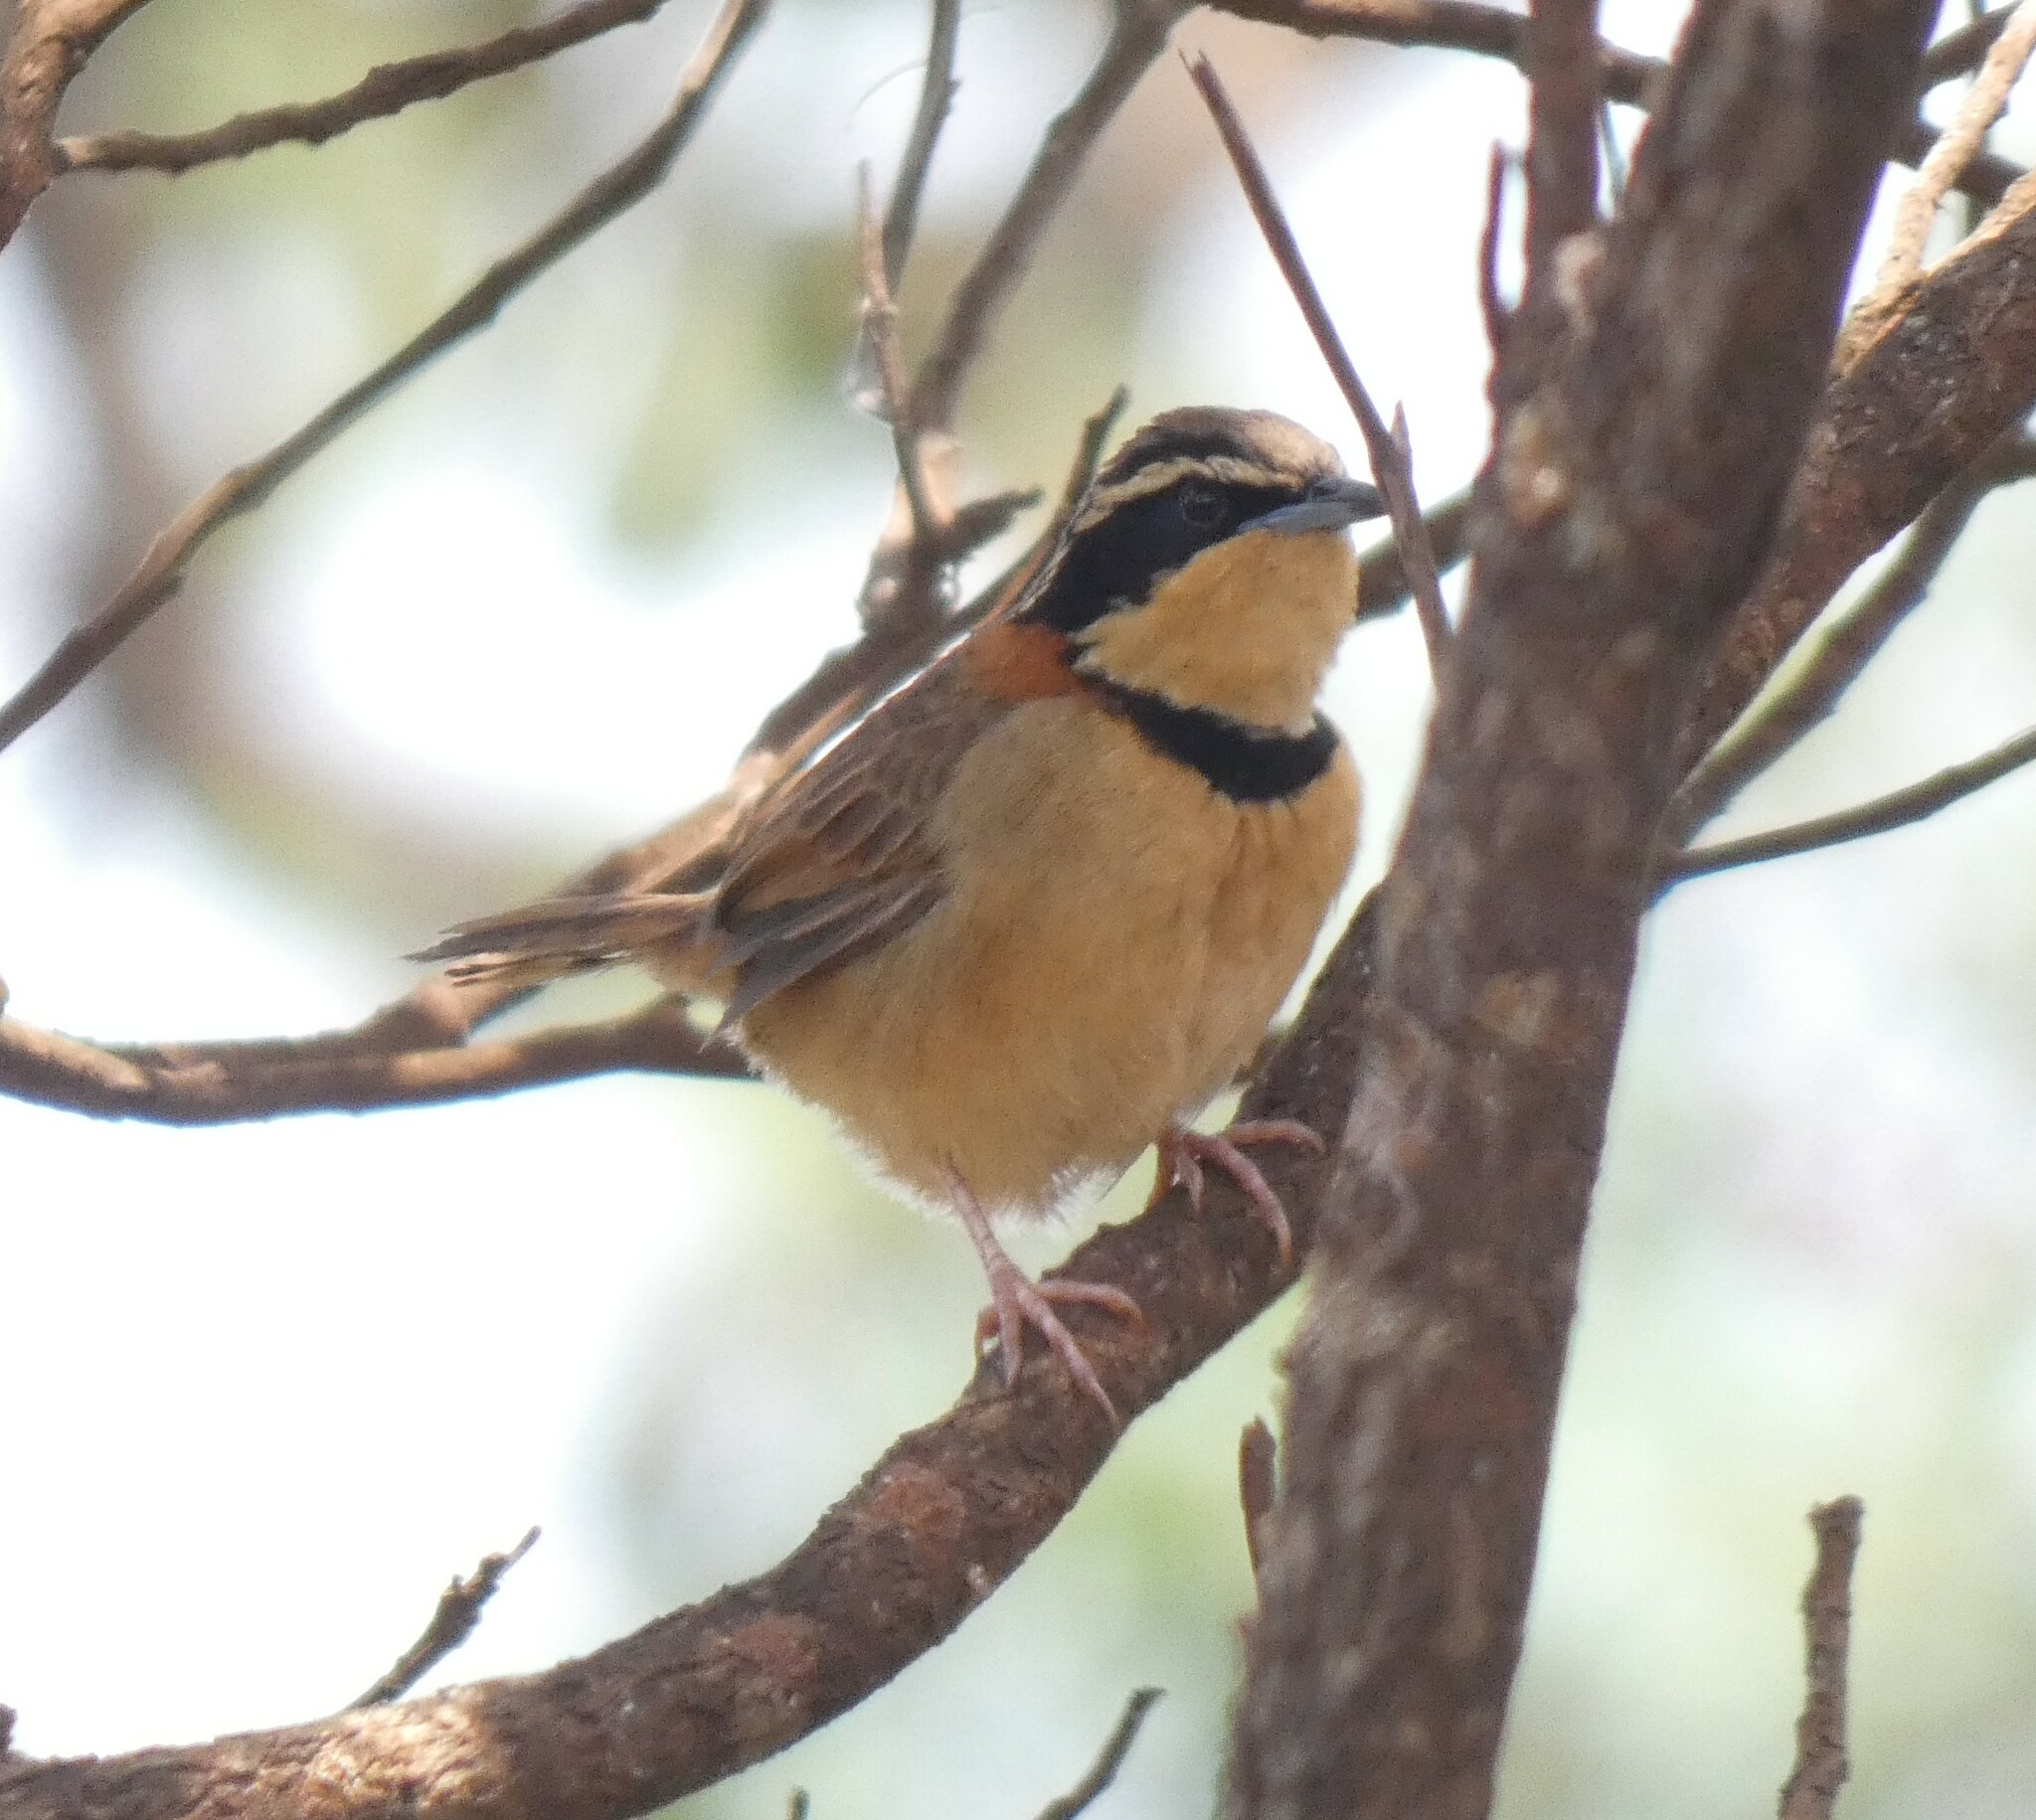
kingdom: Animalia
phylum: Chordata
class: Aves
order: Passeriformes
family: Melanopareiidae
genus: Melanopareia
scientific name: Melanopareia torquata
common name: Collared crescentchest
